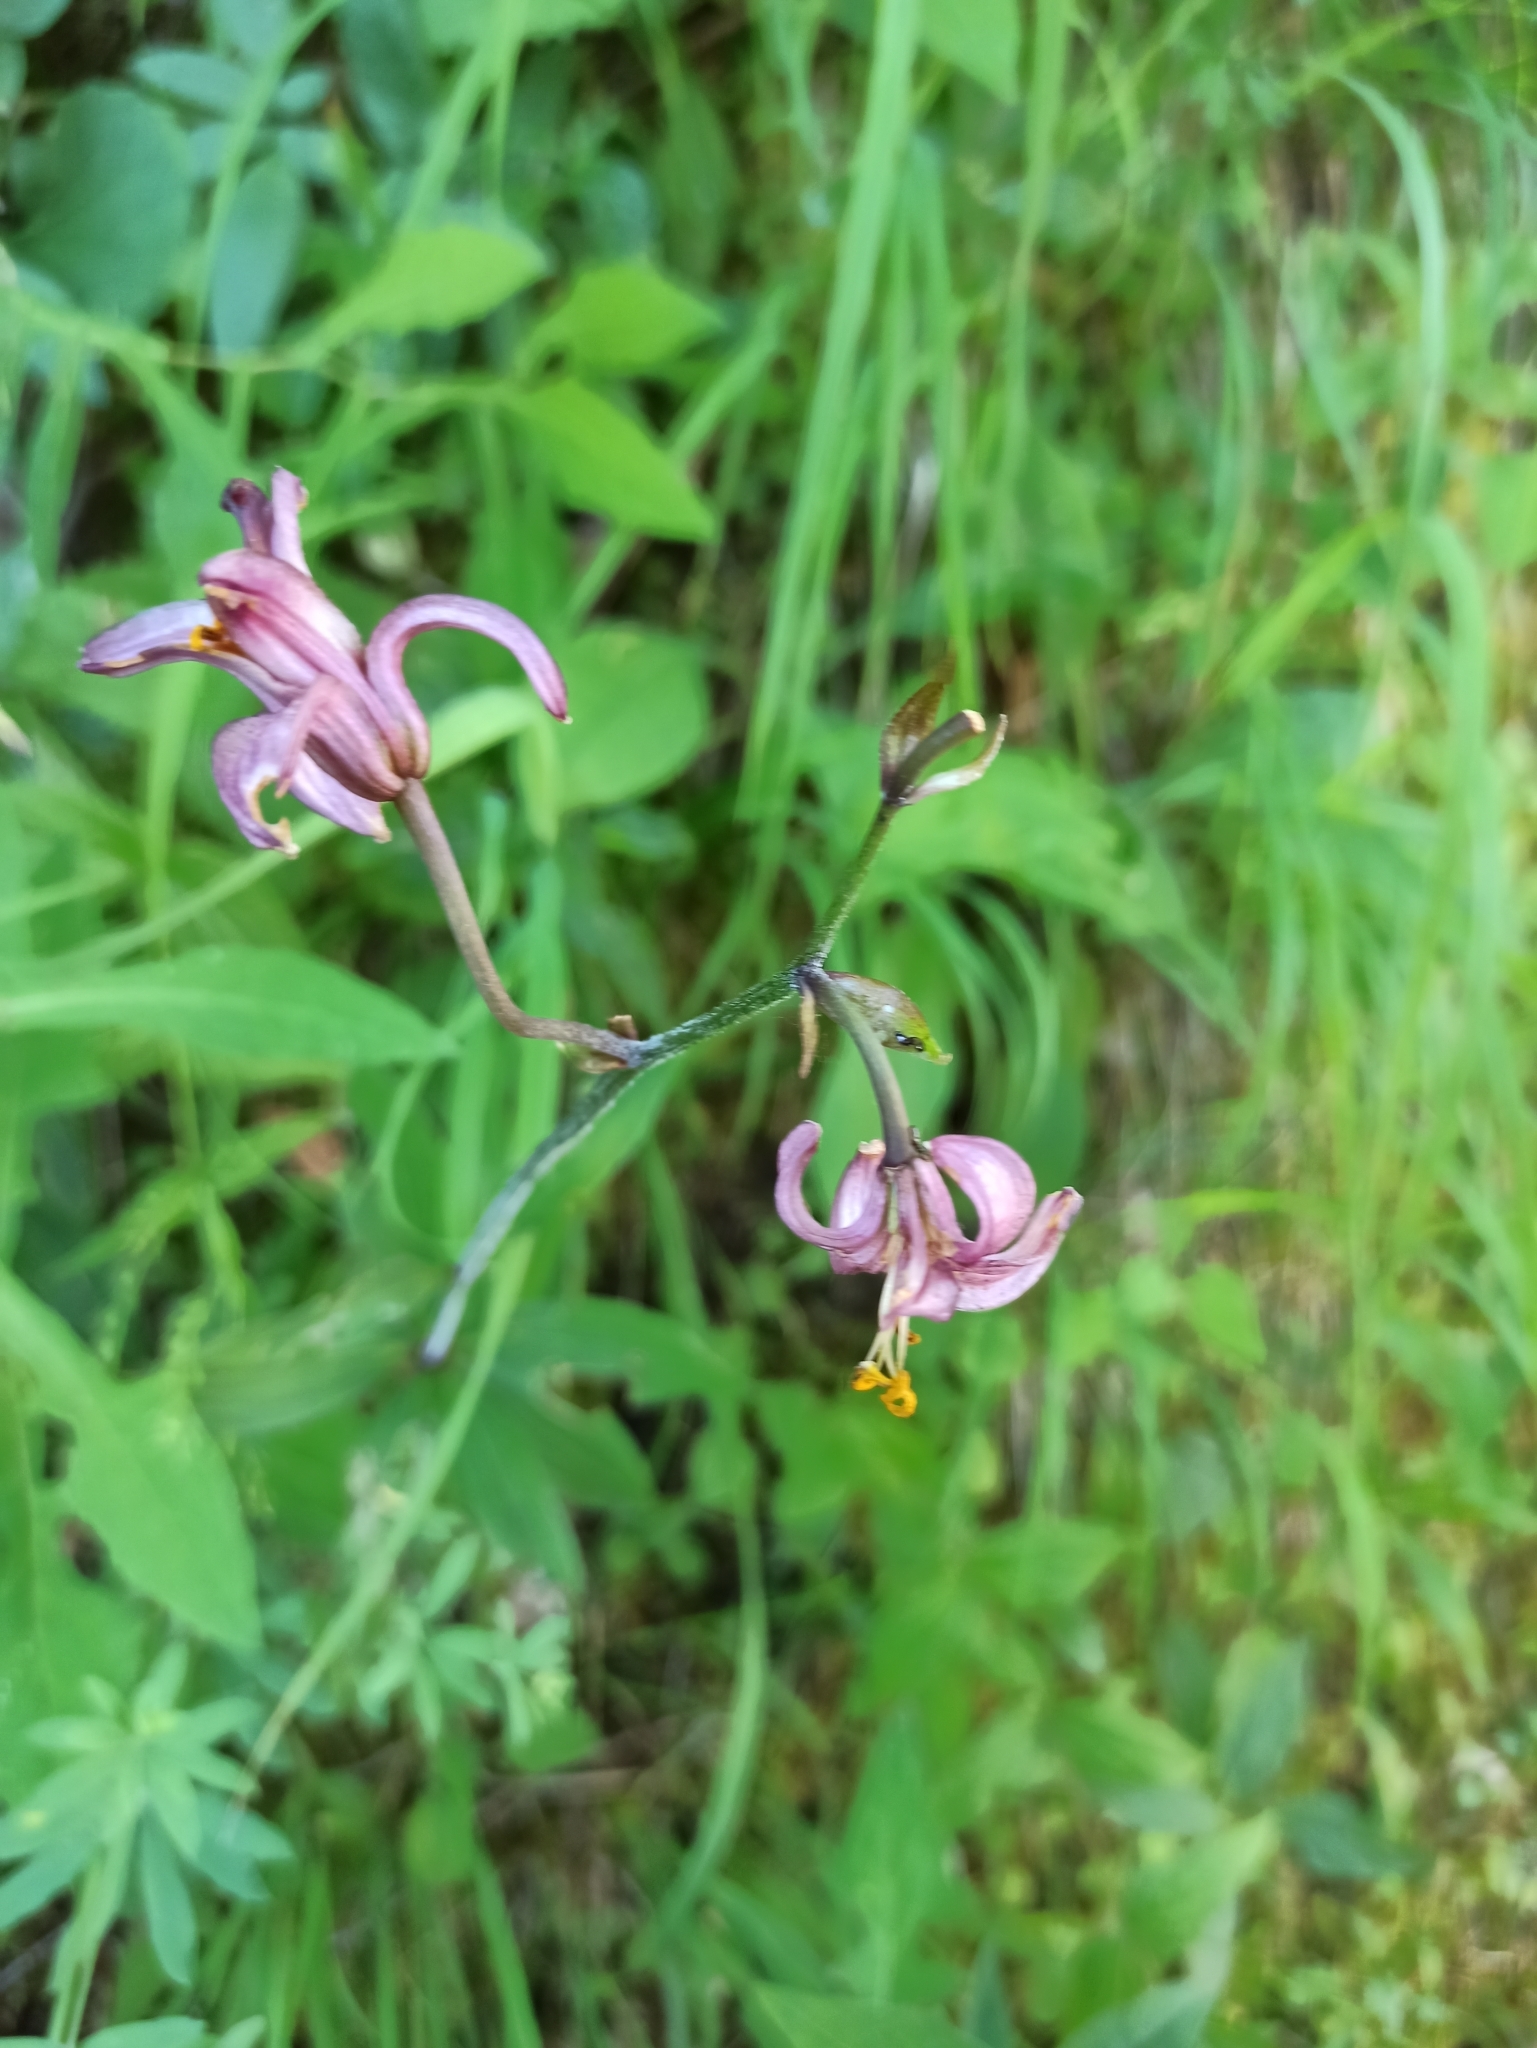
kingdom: Plantae
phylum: Tracheophyta
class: Liliopsida
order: Liliales
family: Liliaceae
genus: Lilium
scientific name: Lilium martagon
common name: Martagon lily
